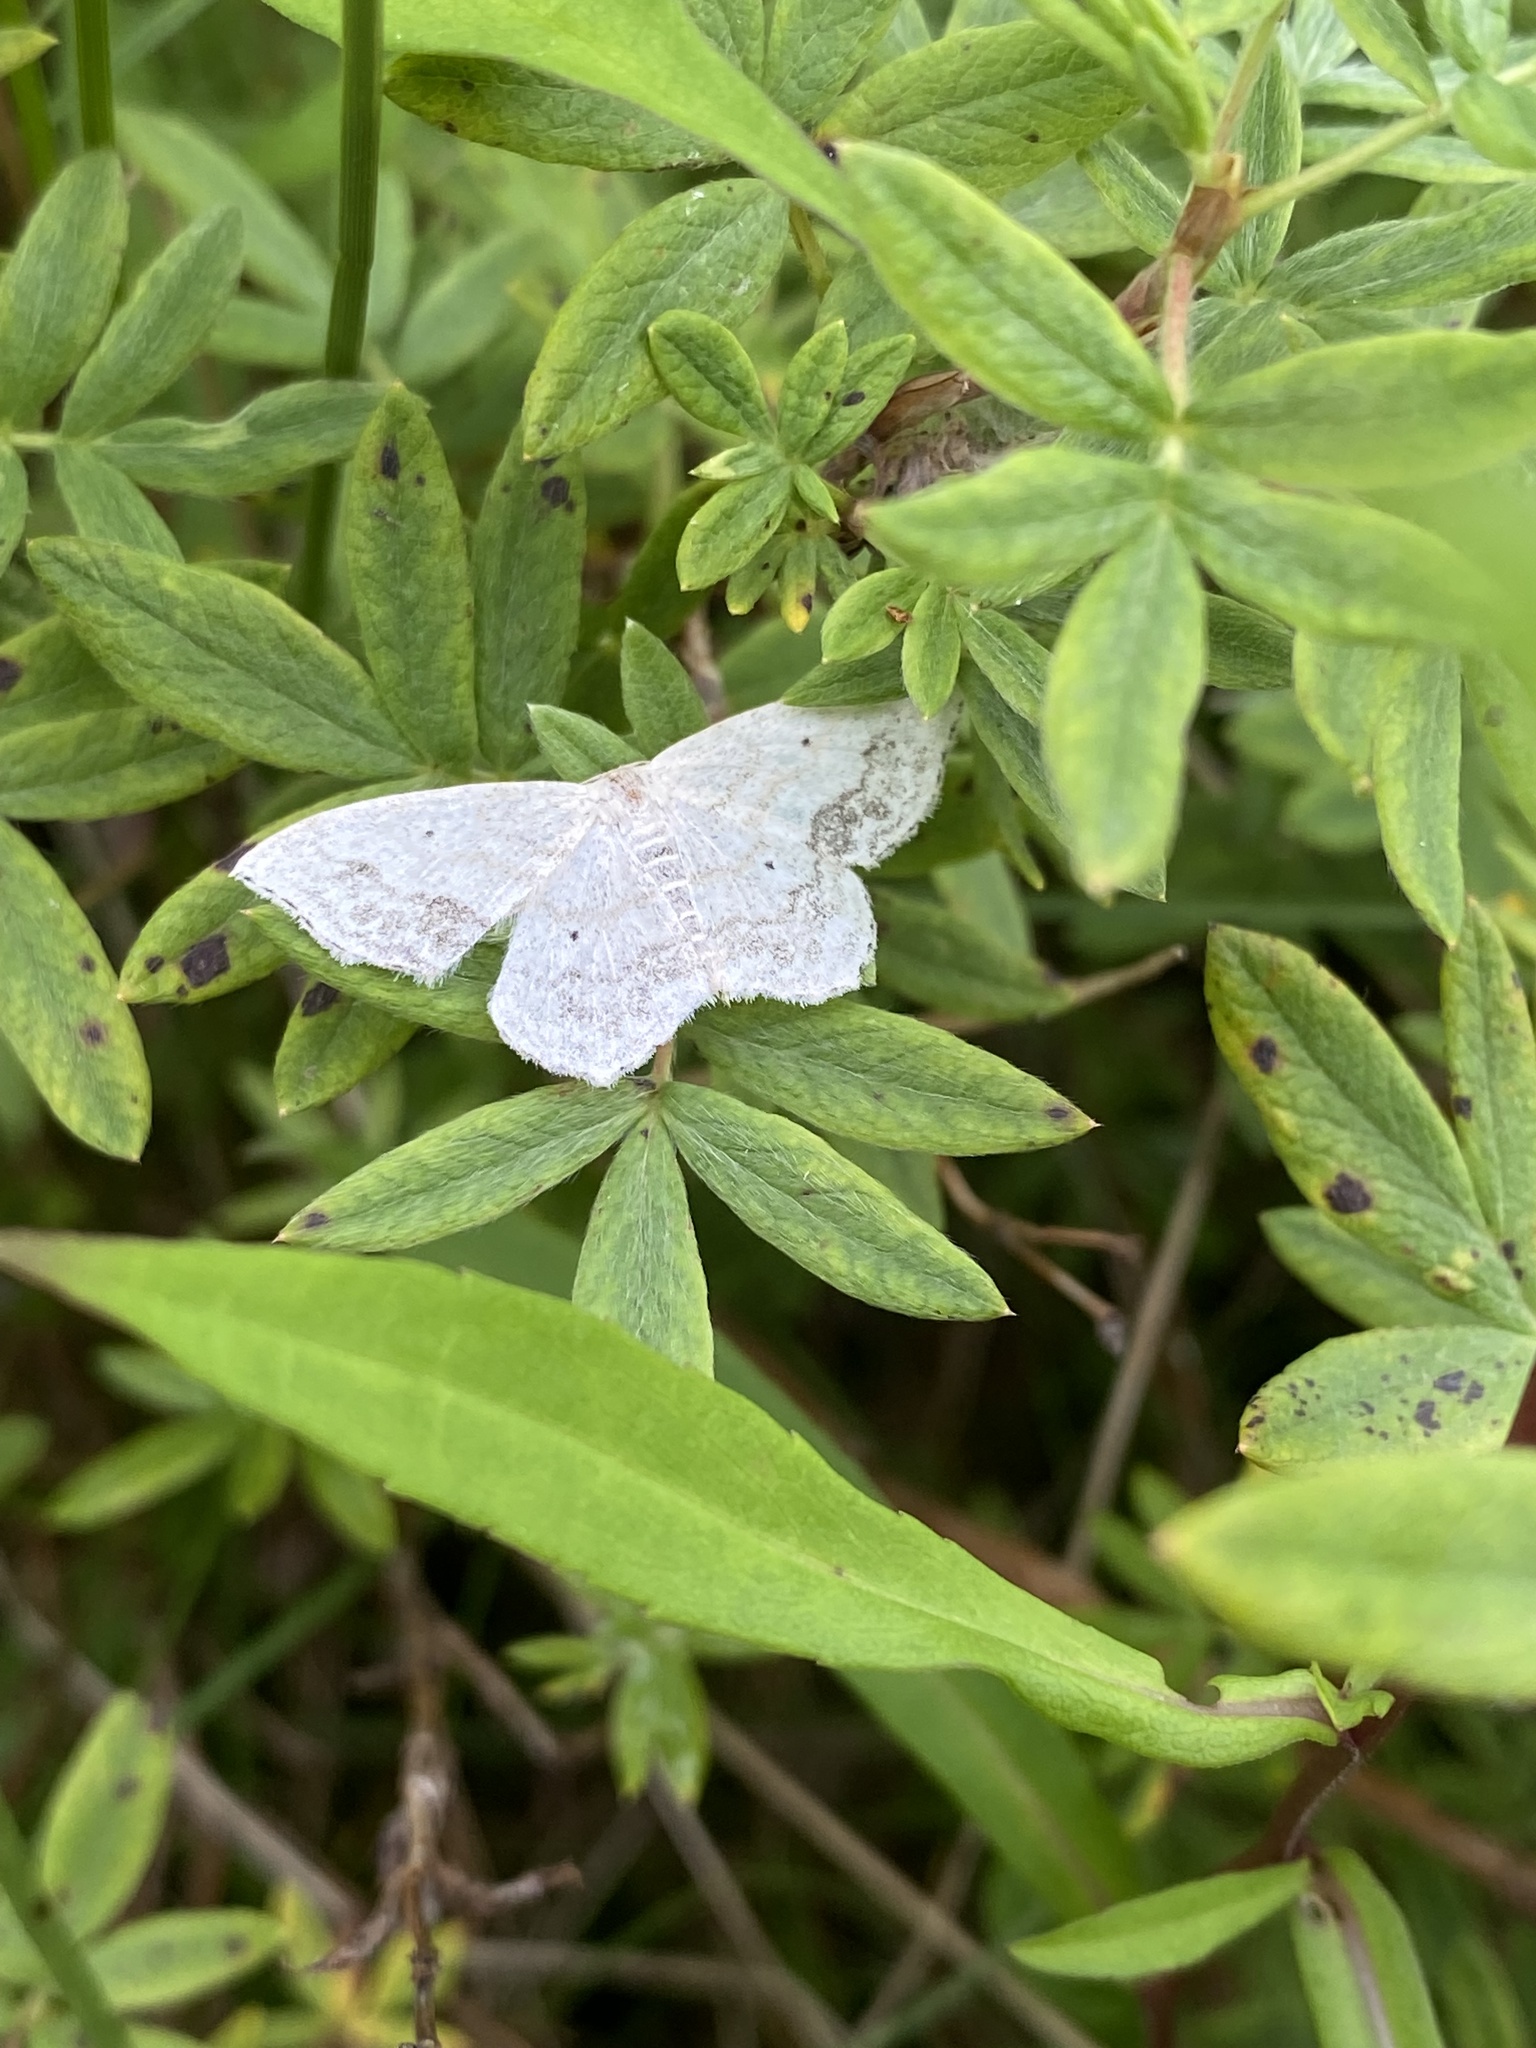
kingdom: Animalia
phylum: Arthropoda
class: Insecta
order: Lepidoptera
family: Geometridae
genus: Scopula
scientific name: Scopula limboundata
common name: Large lace border
